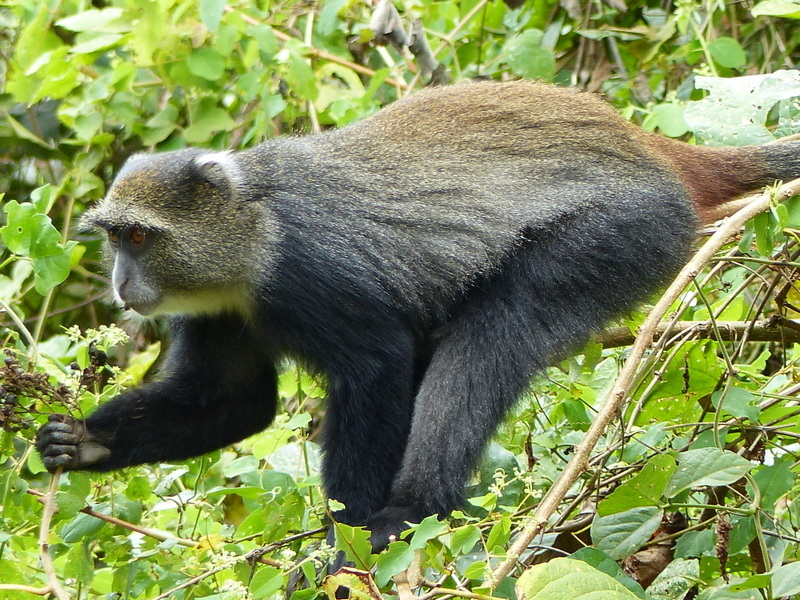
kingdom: Animalia
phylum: Chordata
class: Mammalia
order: Primates
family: Cercopithecidae
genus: Cercopithecus
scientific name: Cercopithecus mitis
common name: Blue monkey
